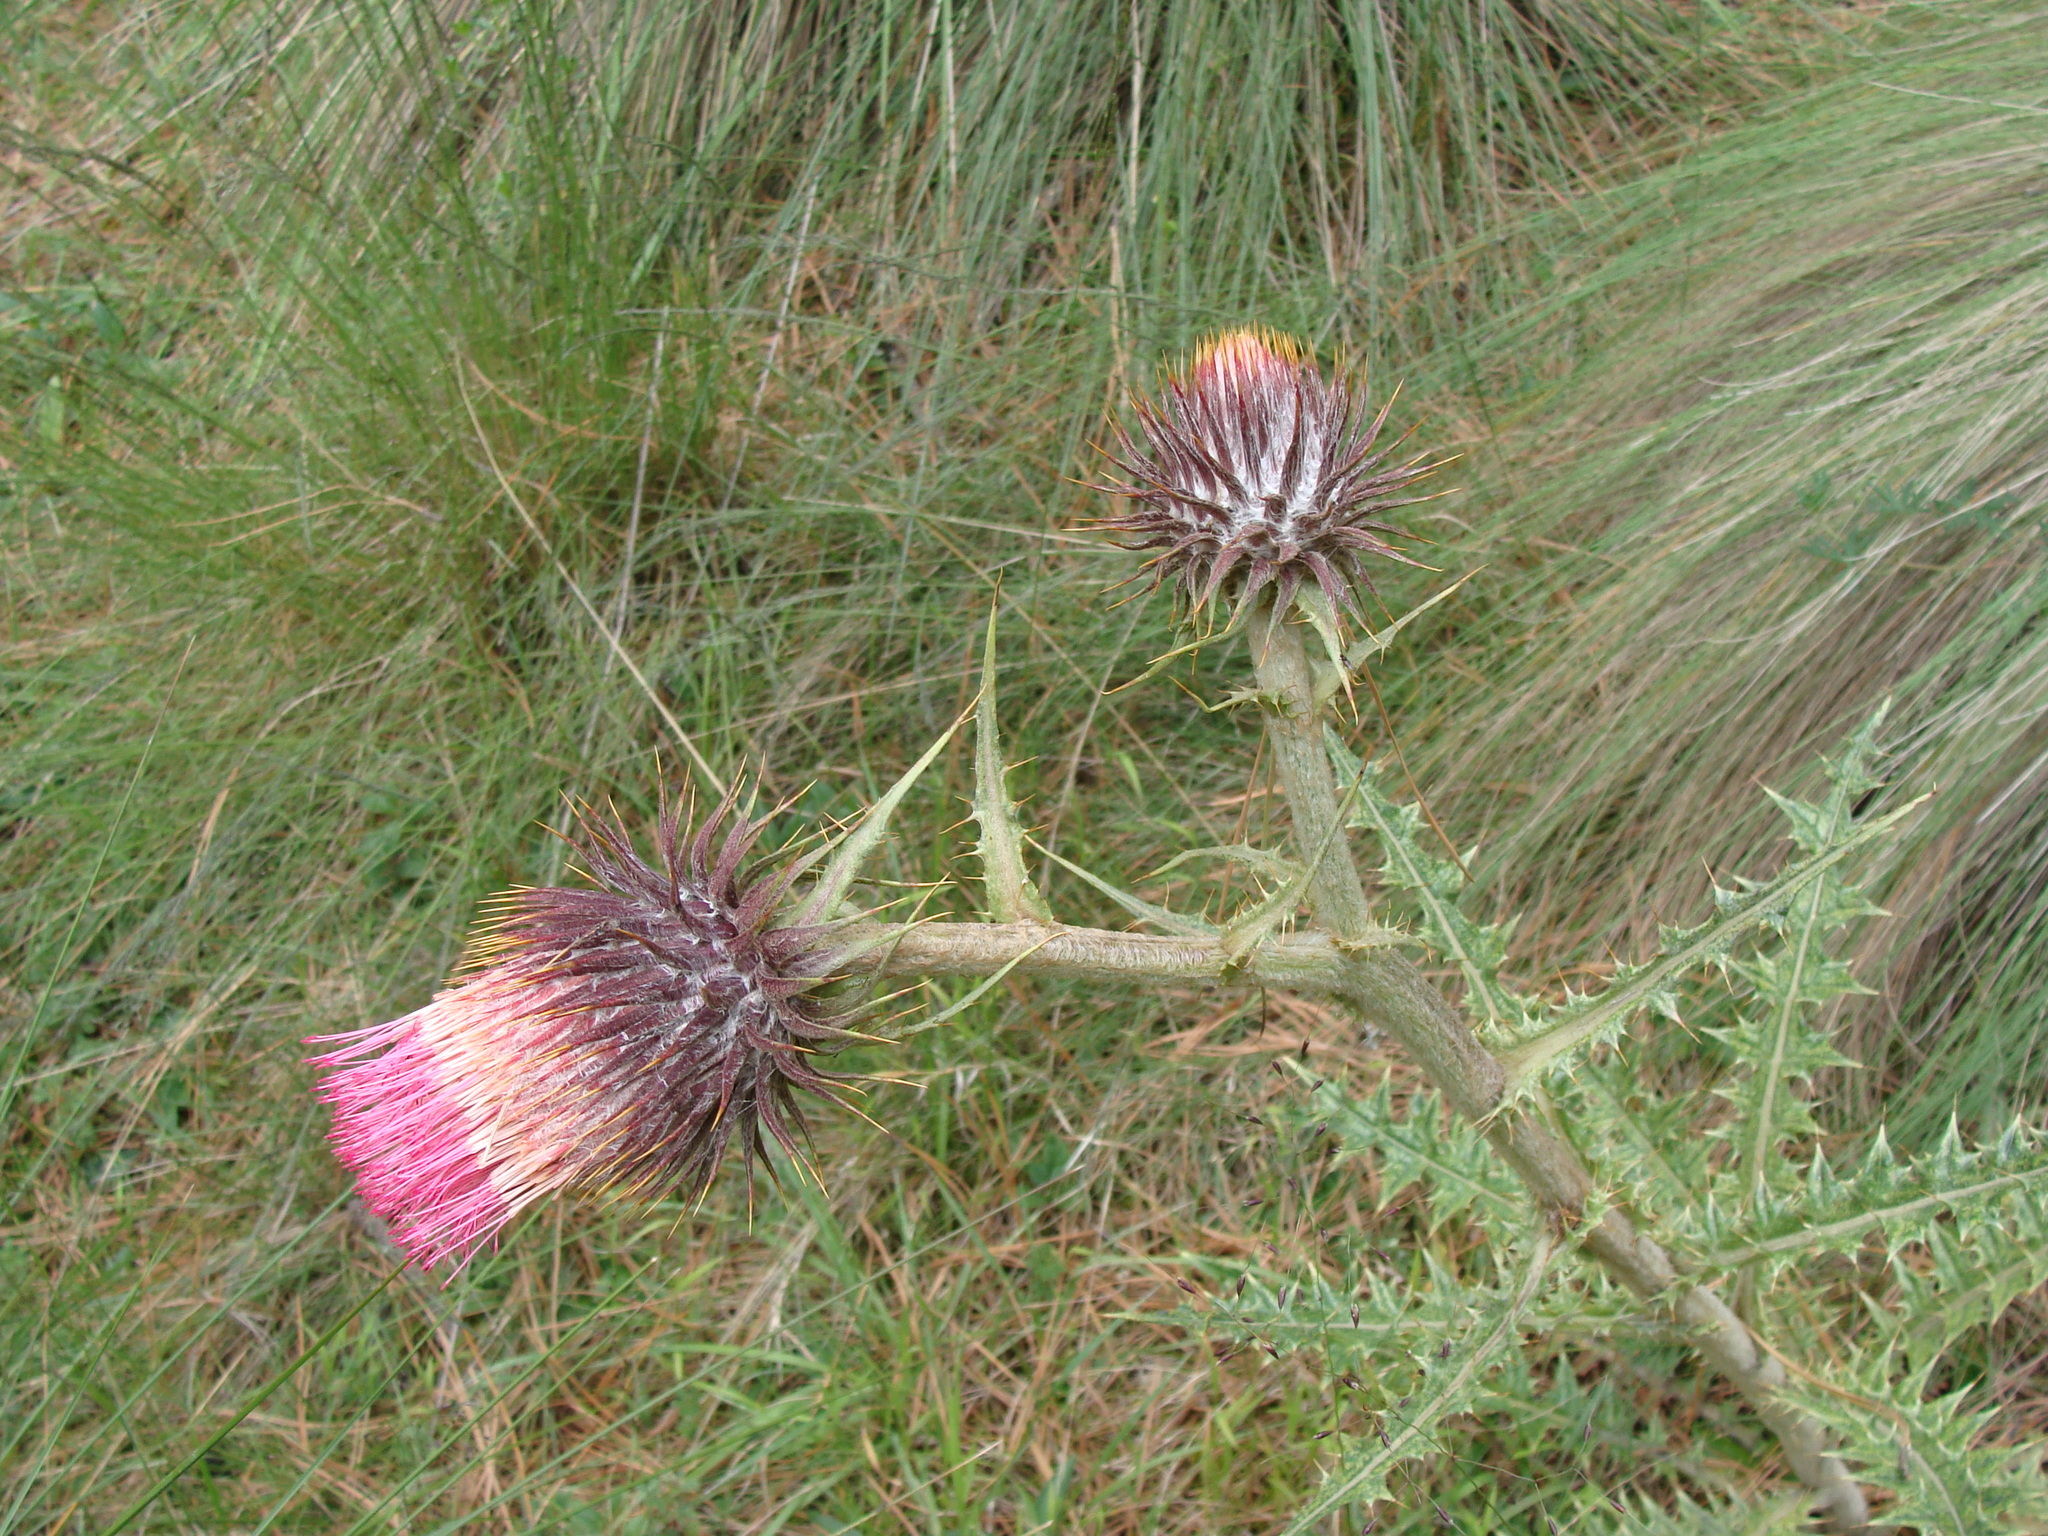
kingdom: Plantae
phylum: Tracheophyta
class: Magnoliopsida
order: Asterales
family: Asteraceae
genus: Cirsium
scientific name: Cirsium ehrenbergii
